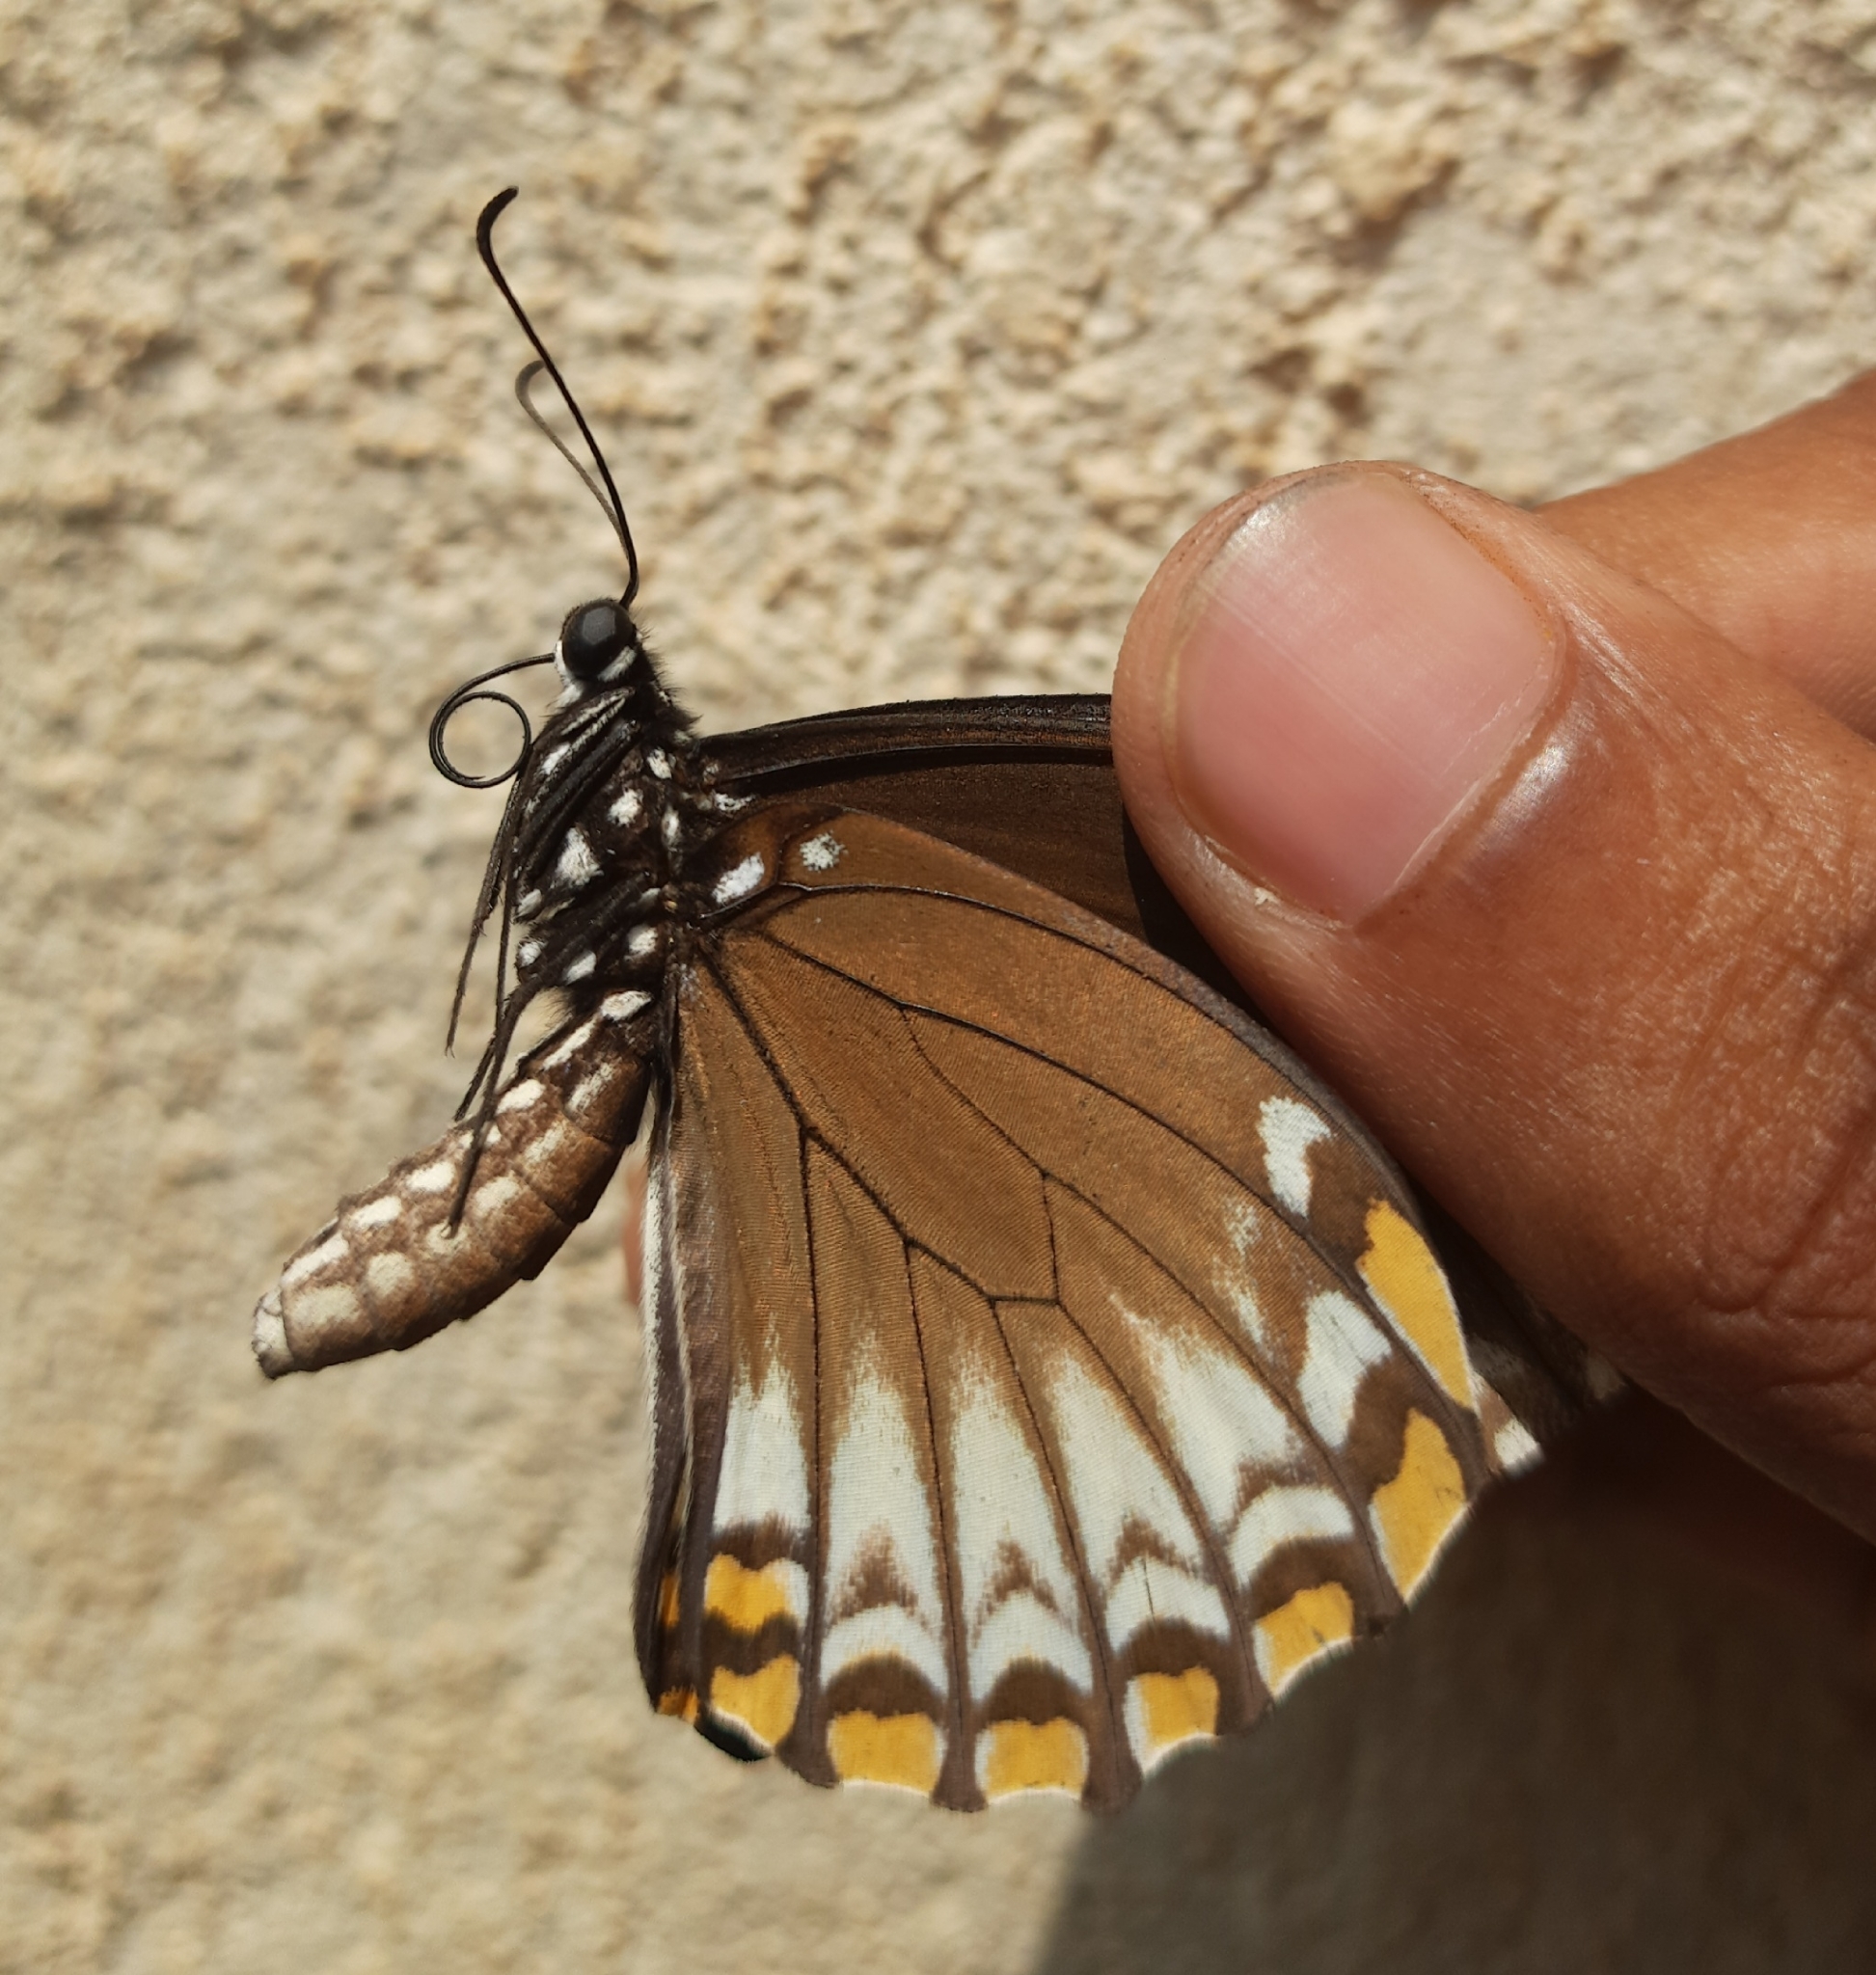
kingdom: Animalia
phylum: Arthropoda
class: Insecta
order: Lepidoptera
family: Papilionidae
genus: Chilasa
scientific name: Chilasa clytia
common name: Common mime
